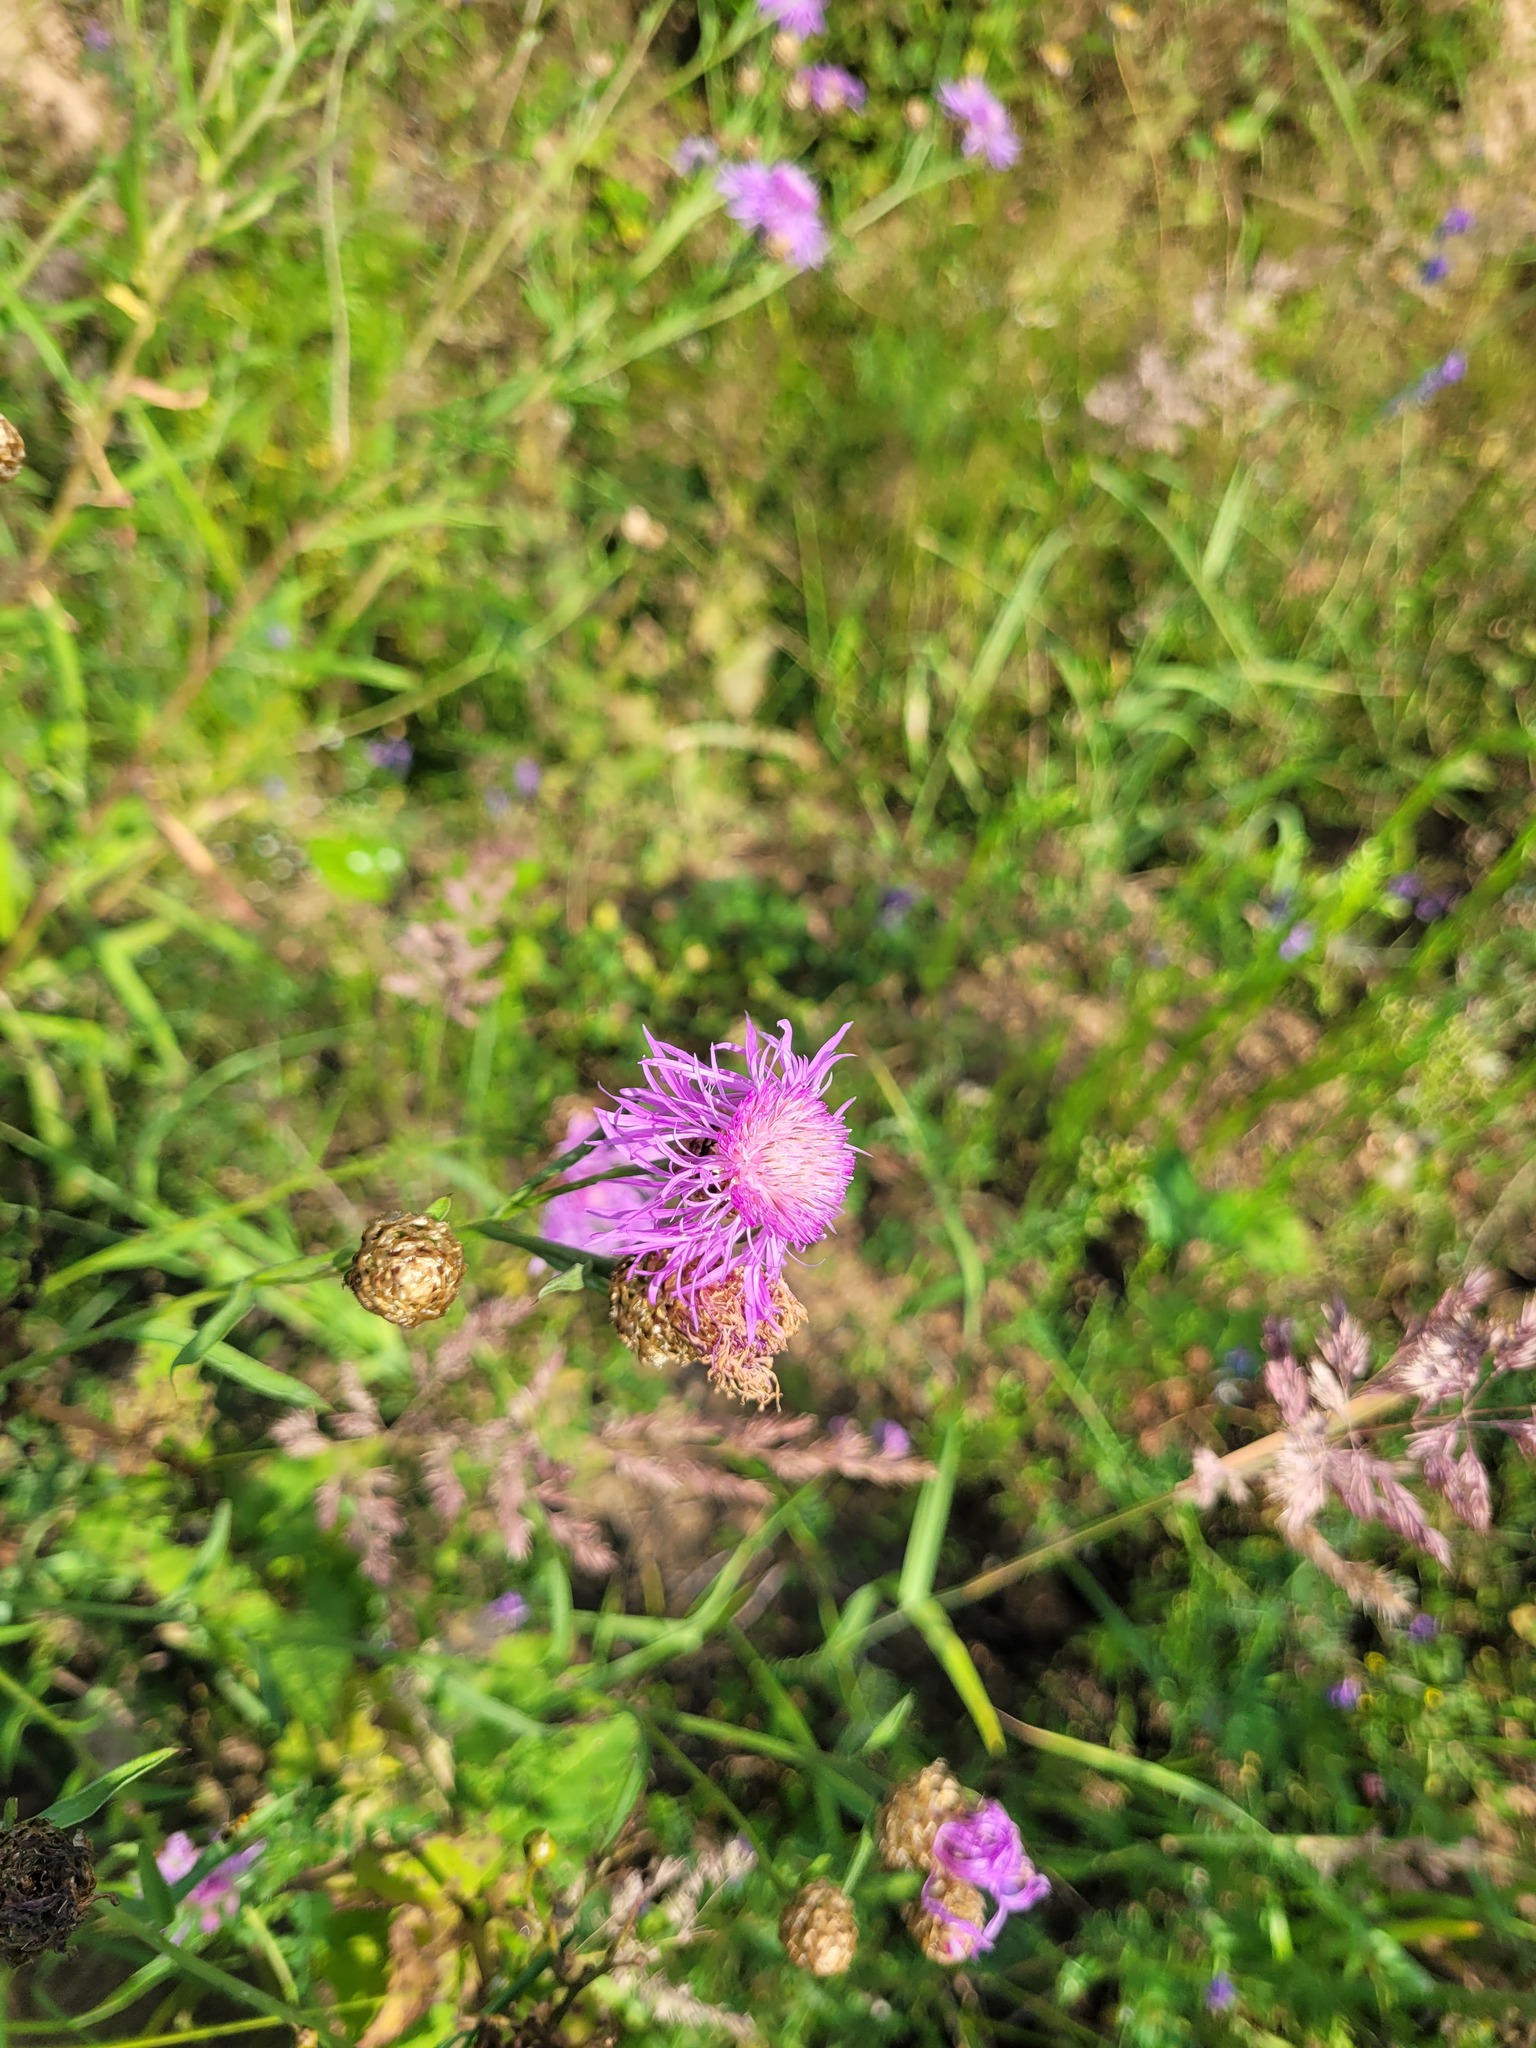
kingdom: Plantae
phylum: Tracheophyta
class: Magnoliopsida
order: Asterales
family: Asteraceae
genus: Centaurea
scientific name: Centaurea jacea
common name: Brown knapweed
